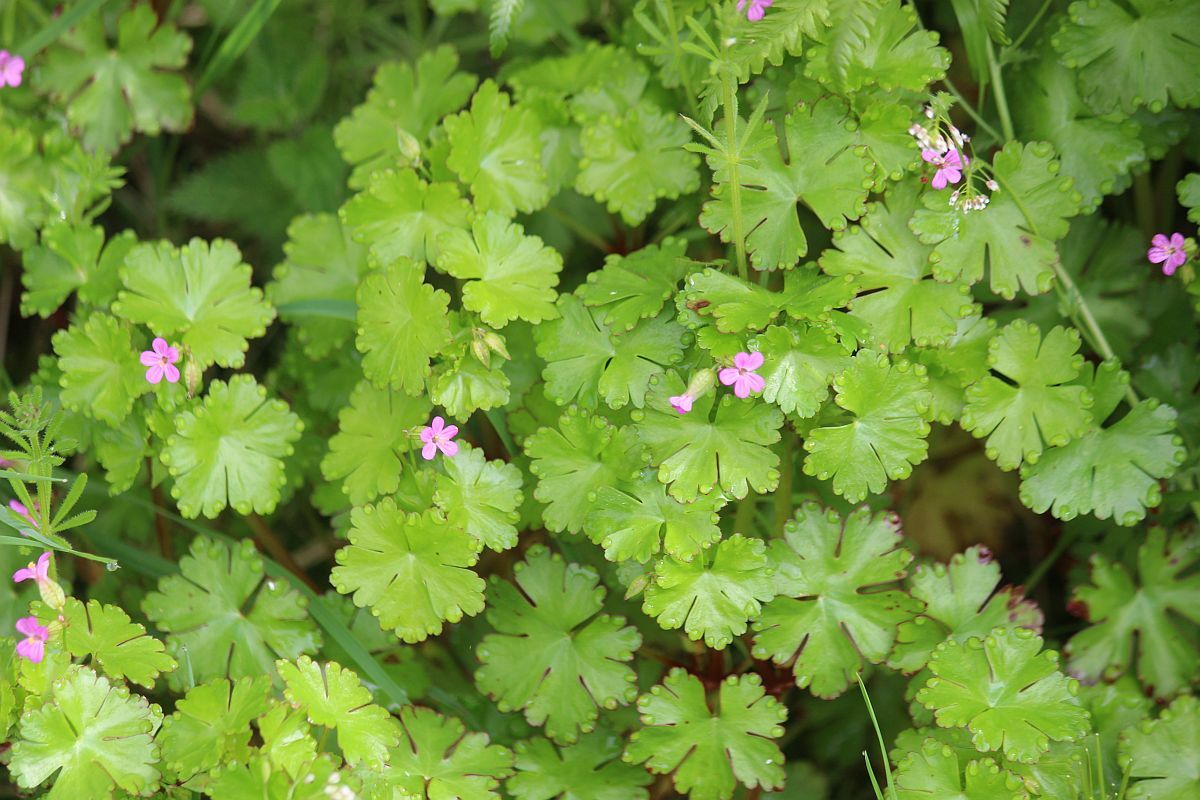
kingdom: Plantae
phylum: Tracheophyta
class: Magnoliopsida
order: Geraniales
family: Geraniaceae
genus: Geranium
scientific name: Geranium lucidum
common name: Shining crane's-bill
